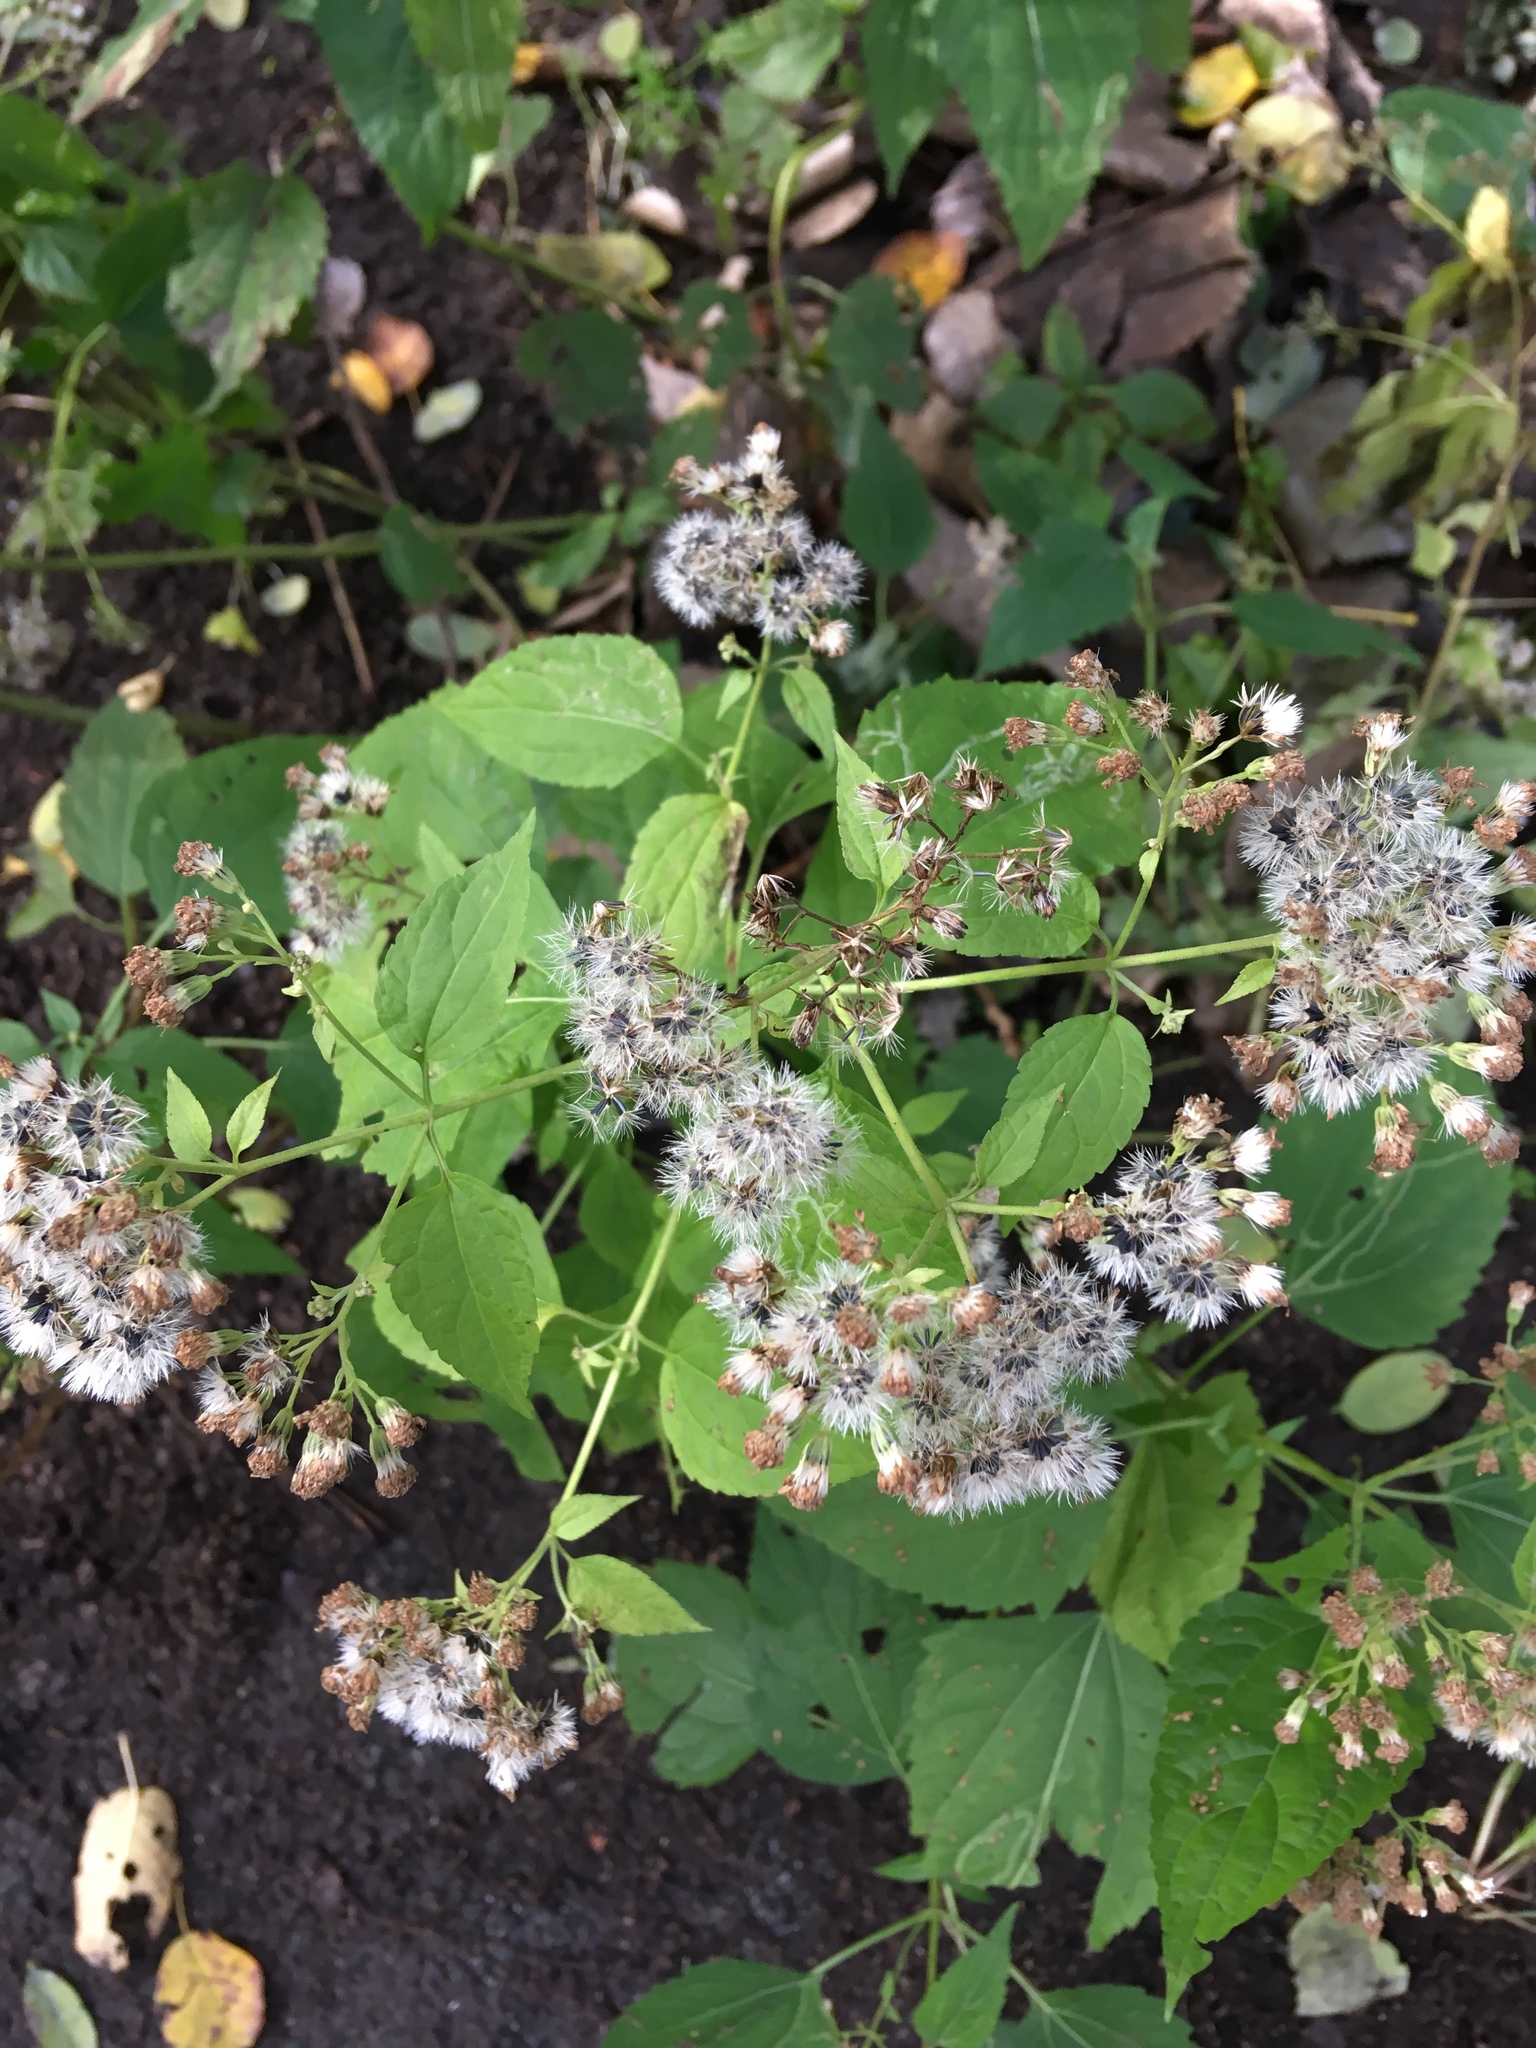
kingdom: Plantae
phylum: Tracheophyta
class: Magnoliopsida
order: Asterales
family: Asteraceae
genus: Ageratina
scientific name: Ageratina altissima
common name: White snakeroot
